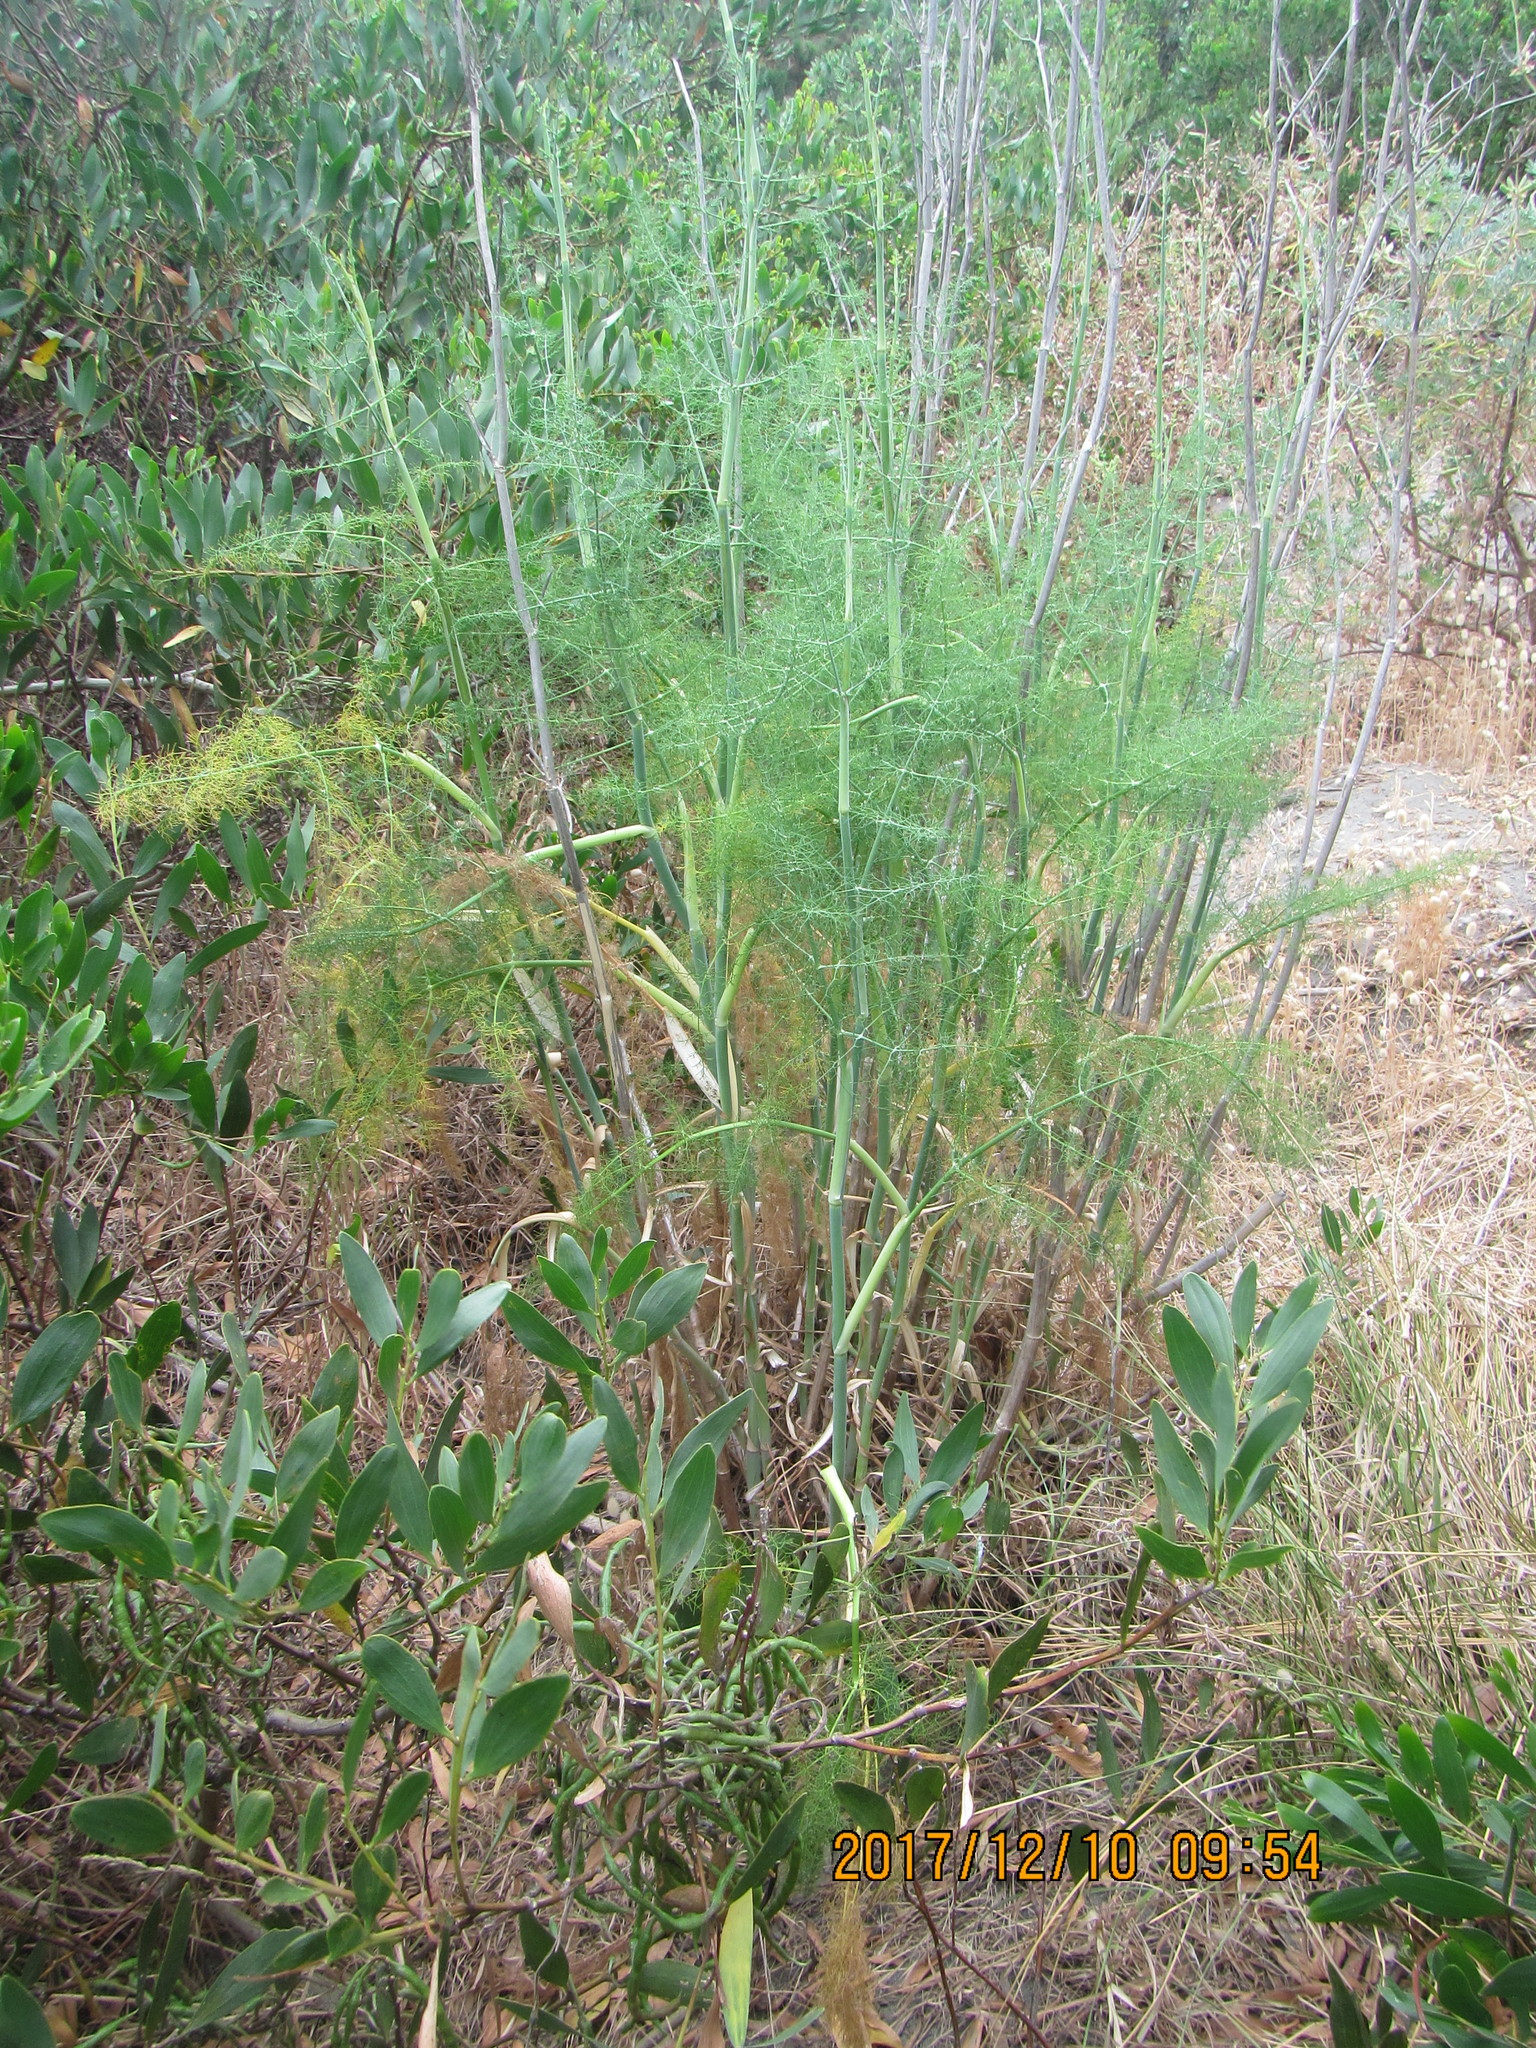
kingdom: Plantae
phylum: Tracheophyta
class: Magnoliopsida
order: Apiales
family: Apiaceae
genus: Foeniculum
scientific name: Foeniculum vulgare
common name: Fennel
